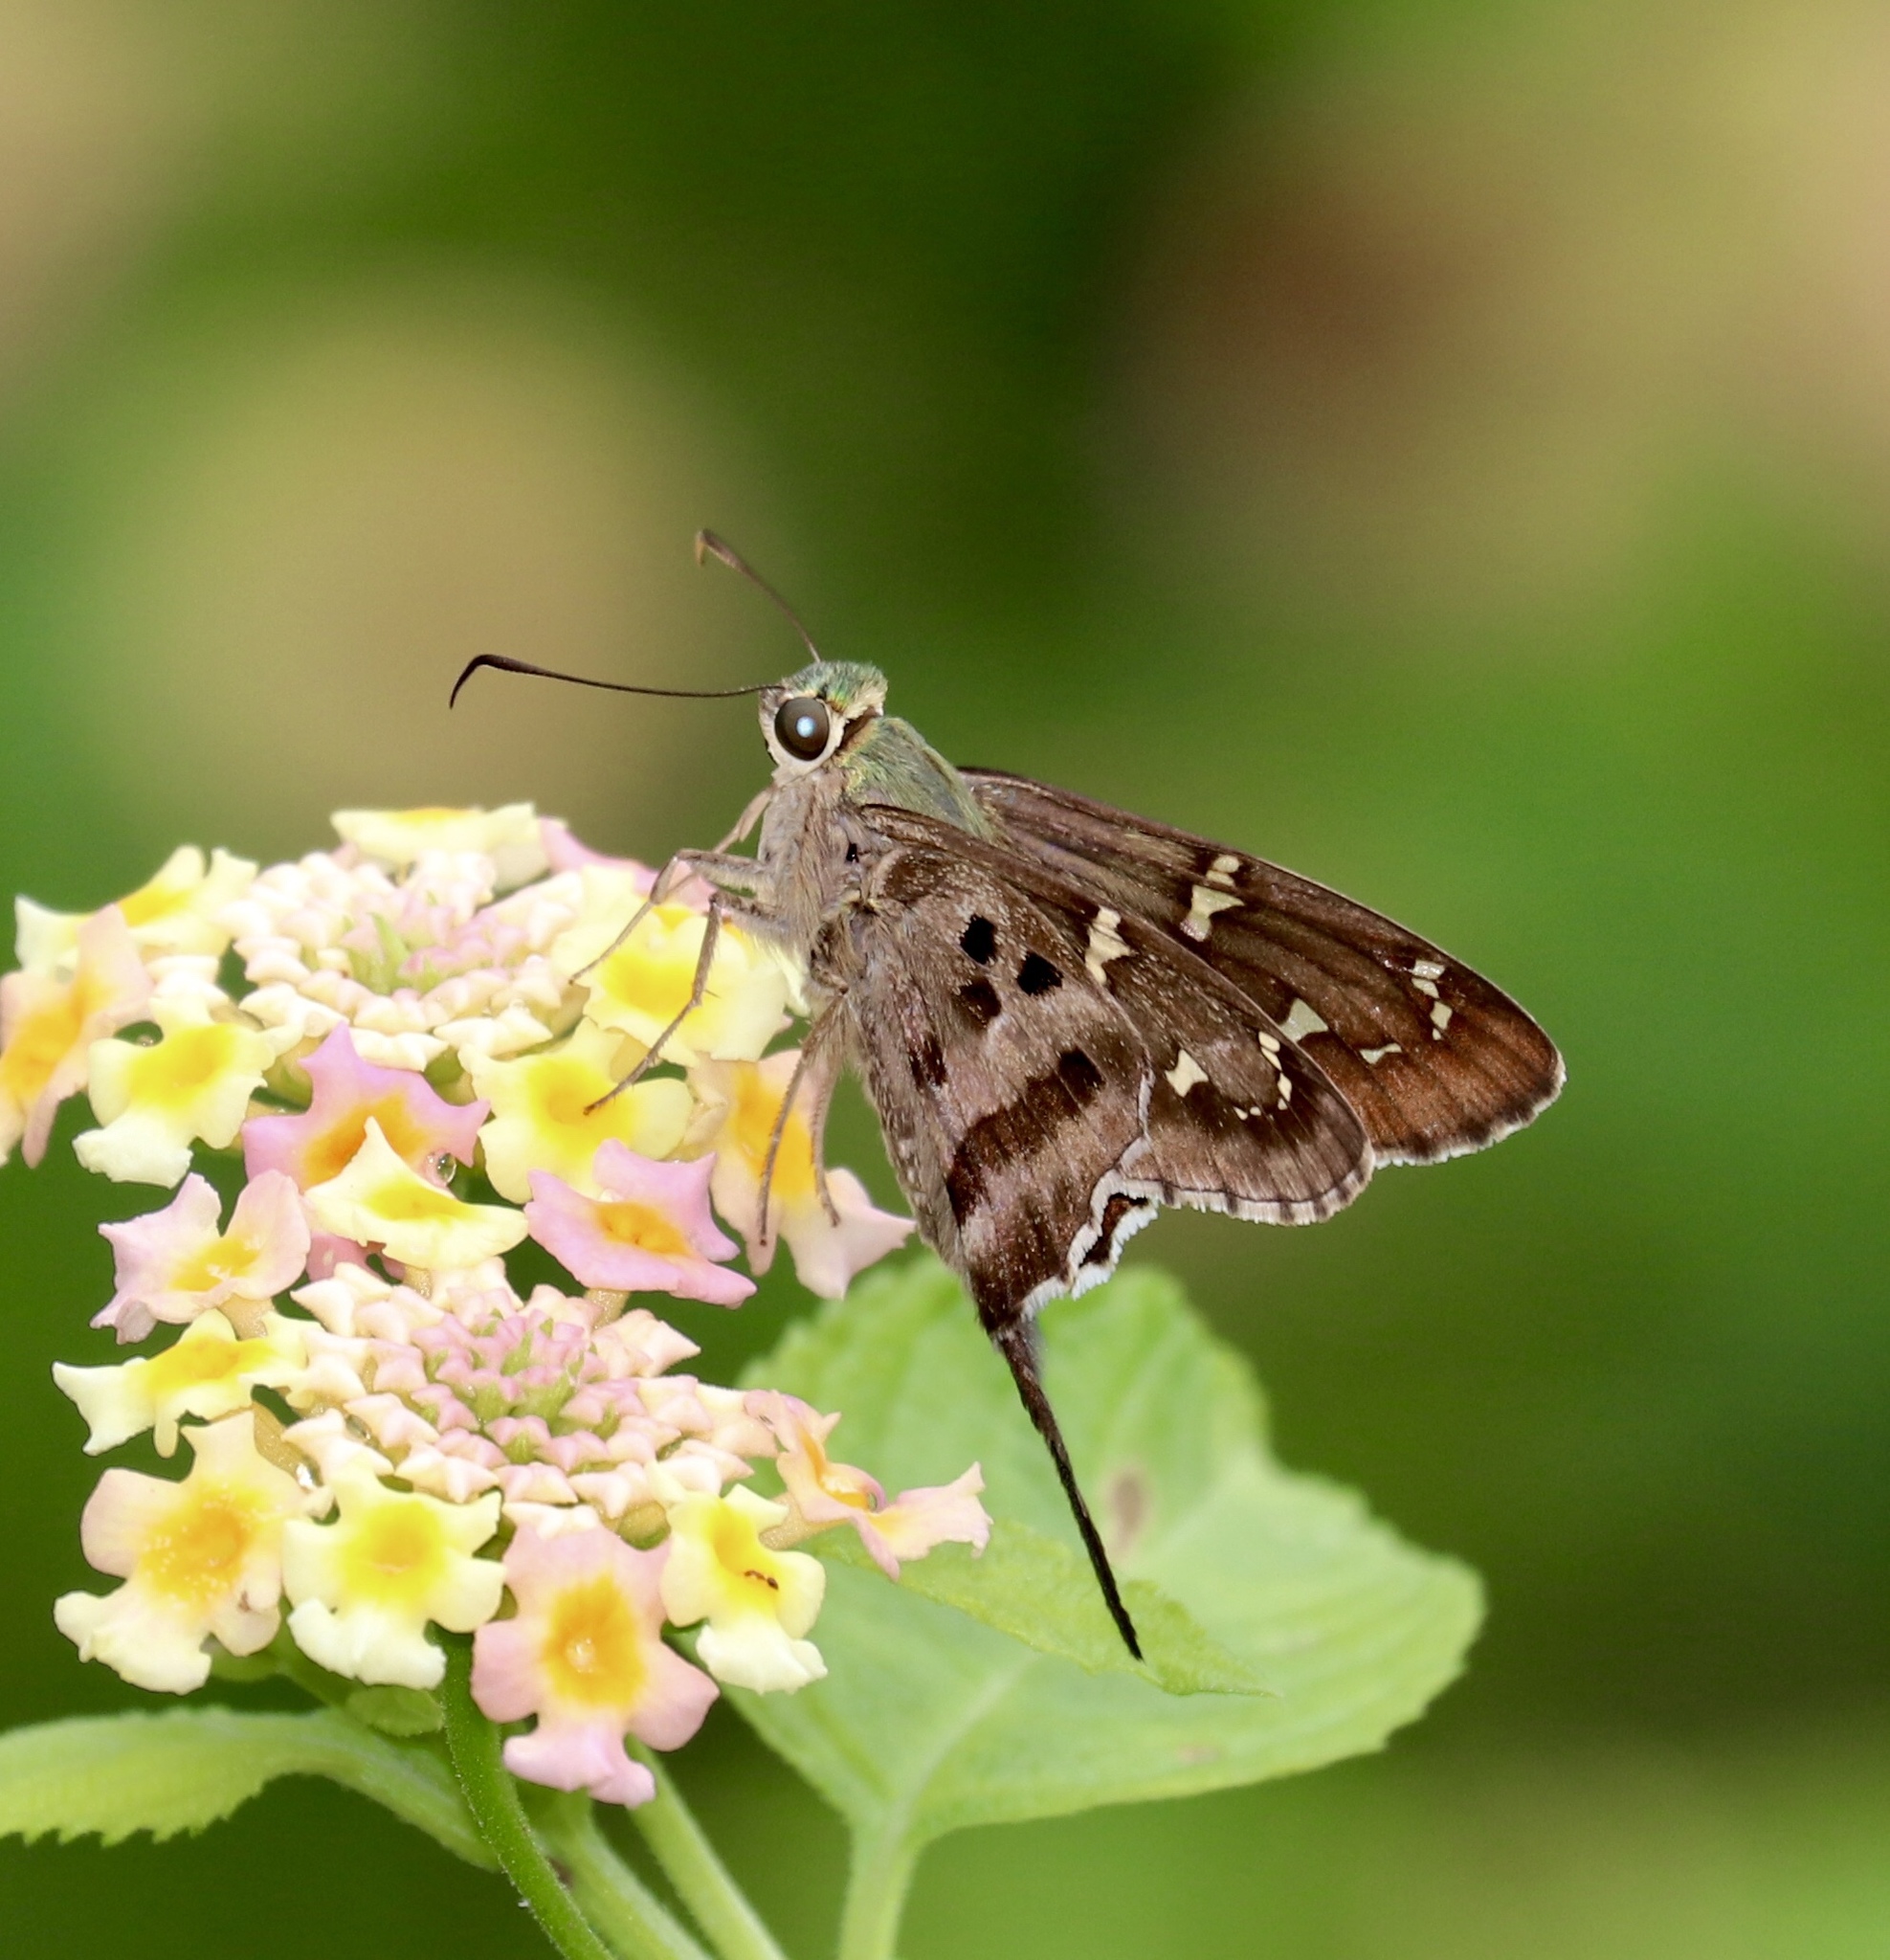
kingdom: Animalia
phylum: Arthropoda
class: Insecta
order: Lepidoptera
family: Hesperiidae
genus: Thorybes
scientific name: Thorybes
